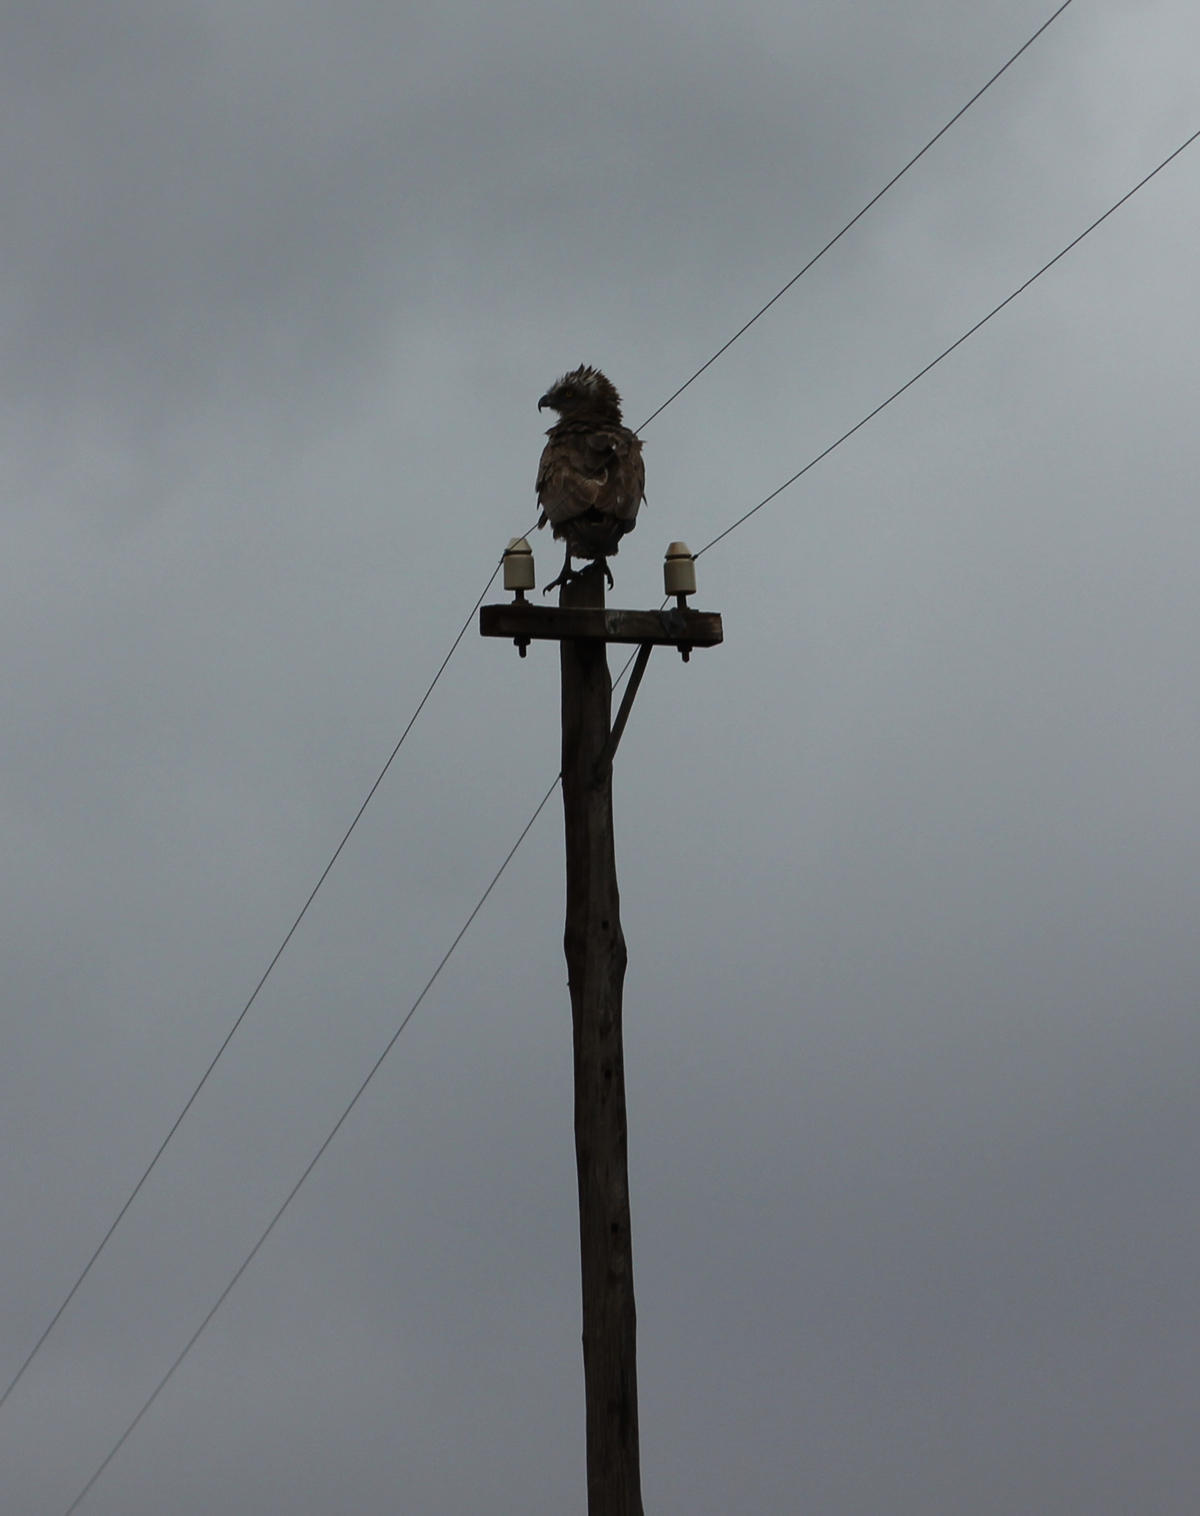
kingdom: Animalia
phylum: Chordata
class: Aves
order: Accipitriformes
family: Accipitridae
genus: Circaetus
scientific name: Circaetus cinereus
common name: Brown snake eagle
